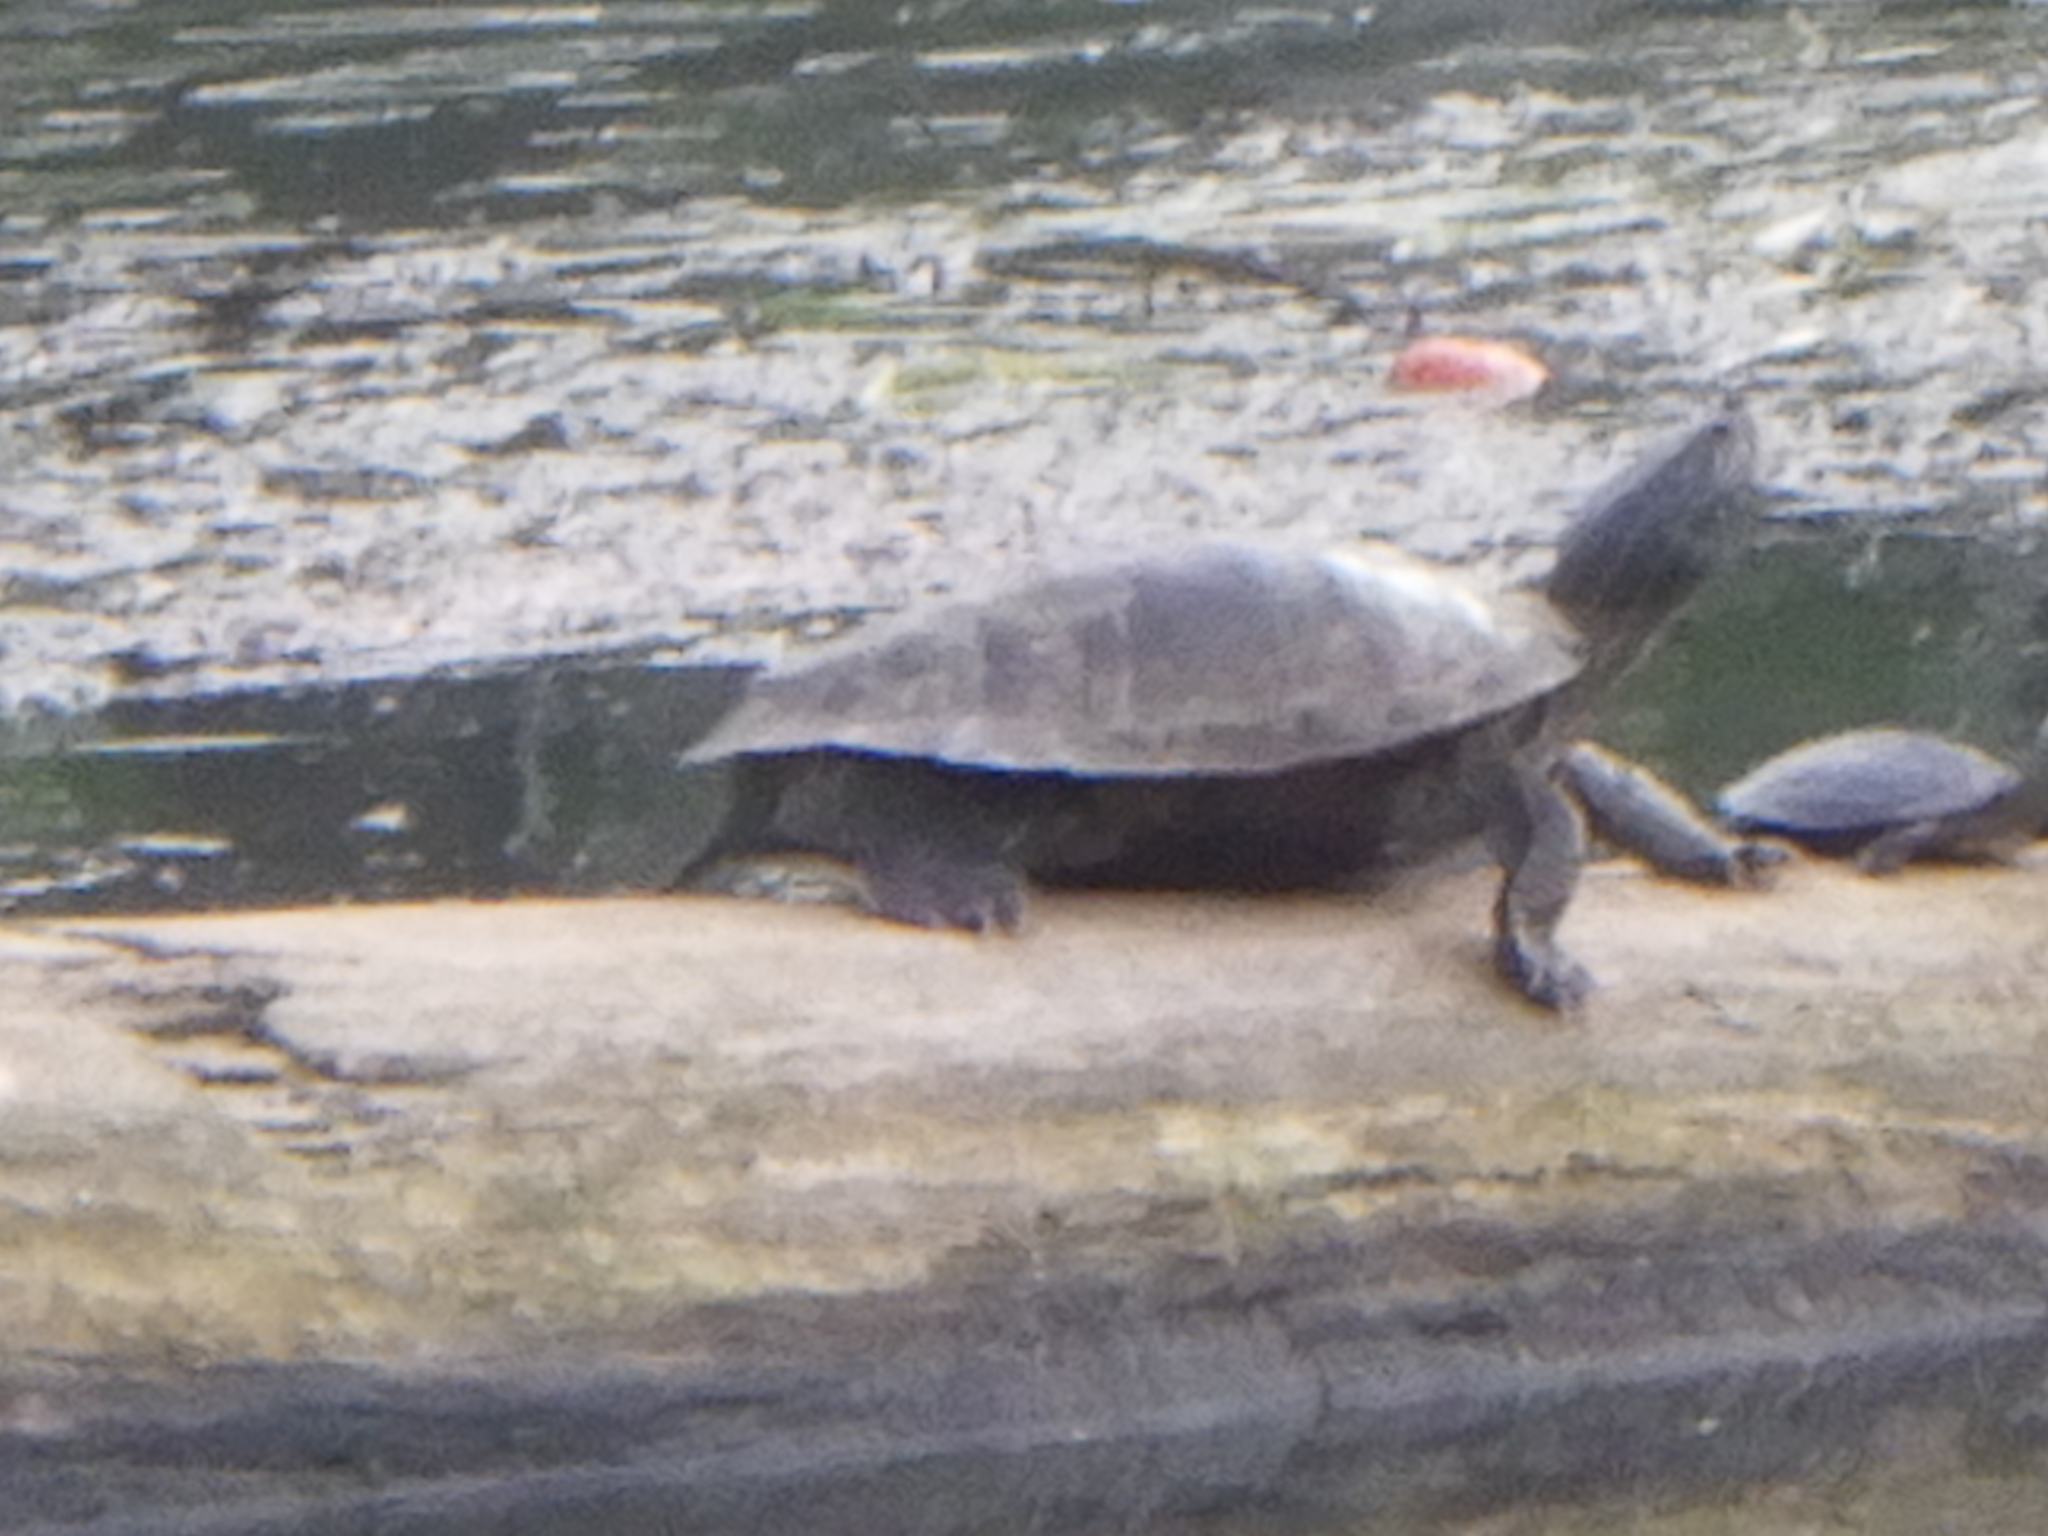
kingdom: Animalia
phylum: Chordata
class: Testudines
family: Emydidae
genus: Graptemys
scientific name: Graptemys geographica
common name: Common map turtle
